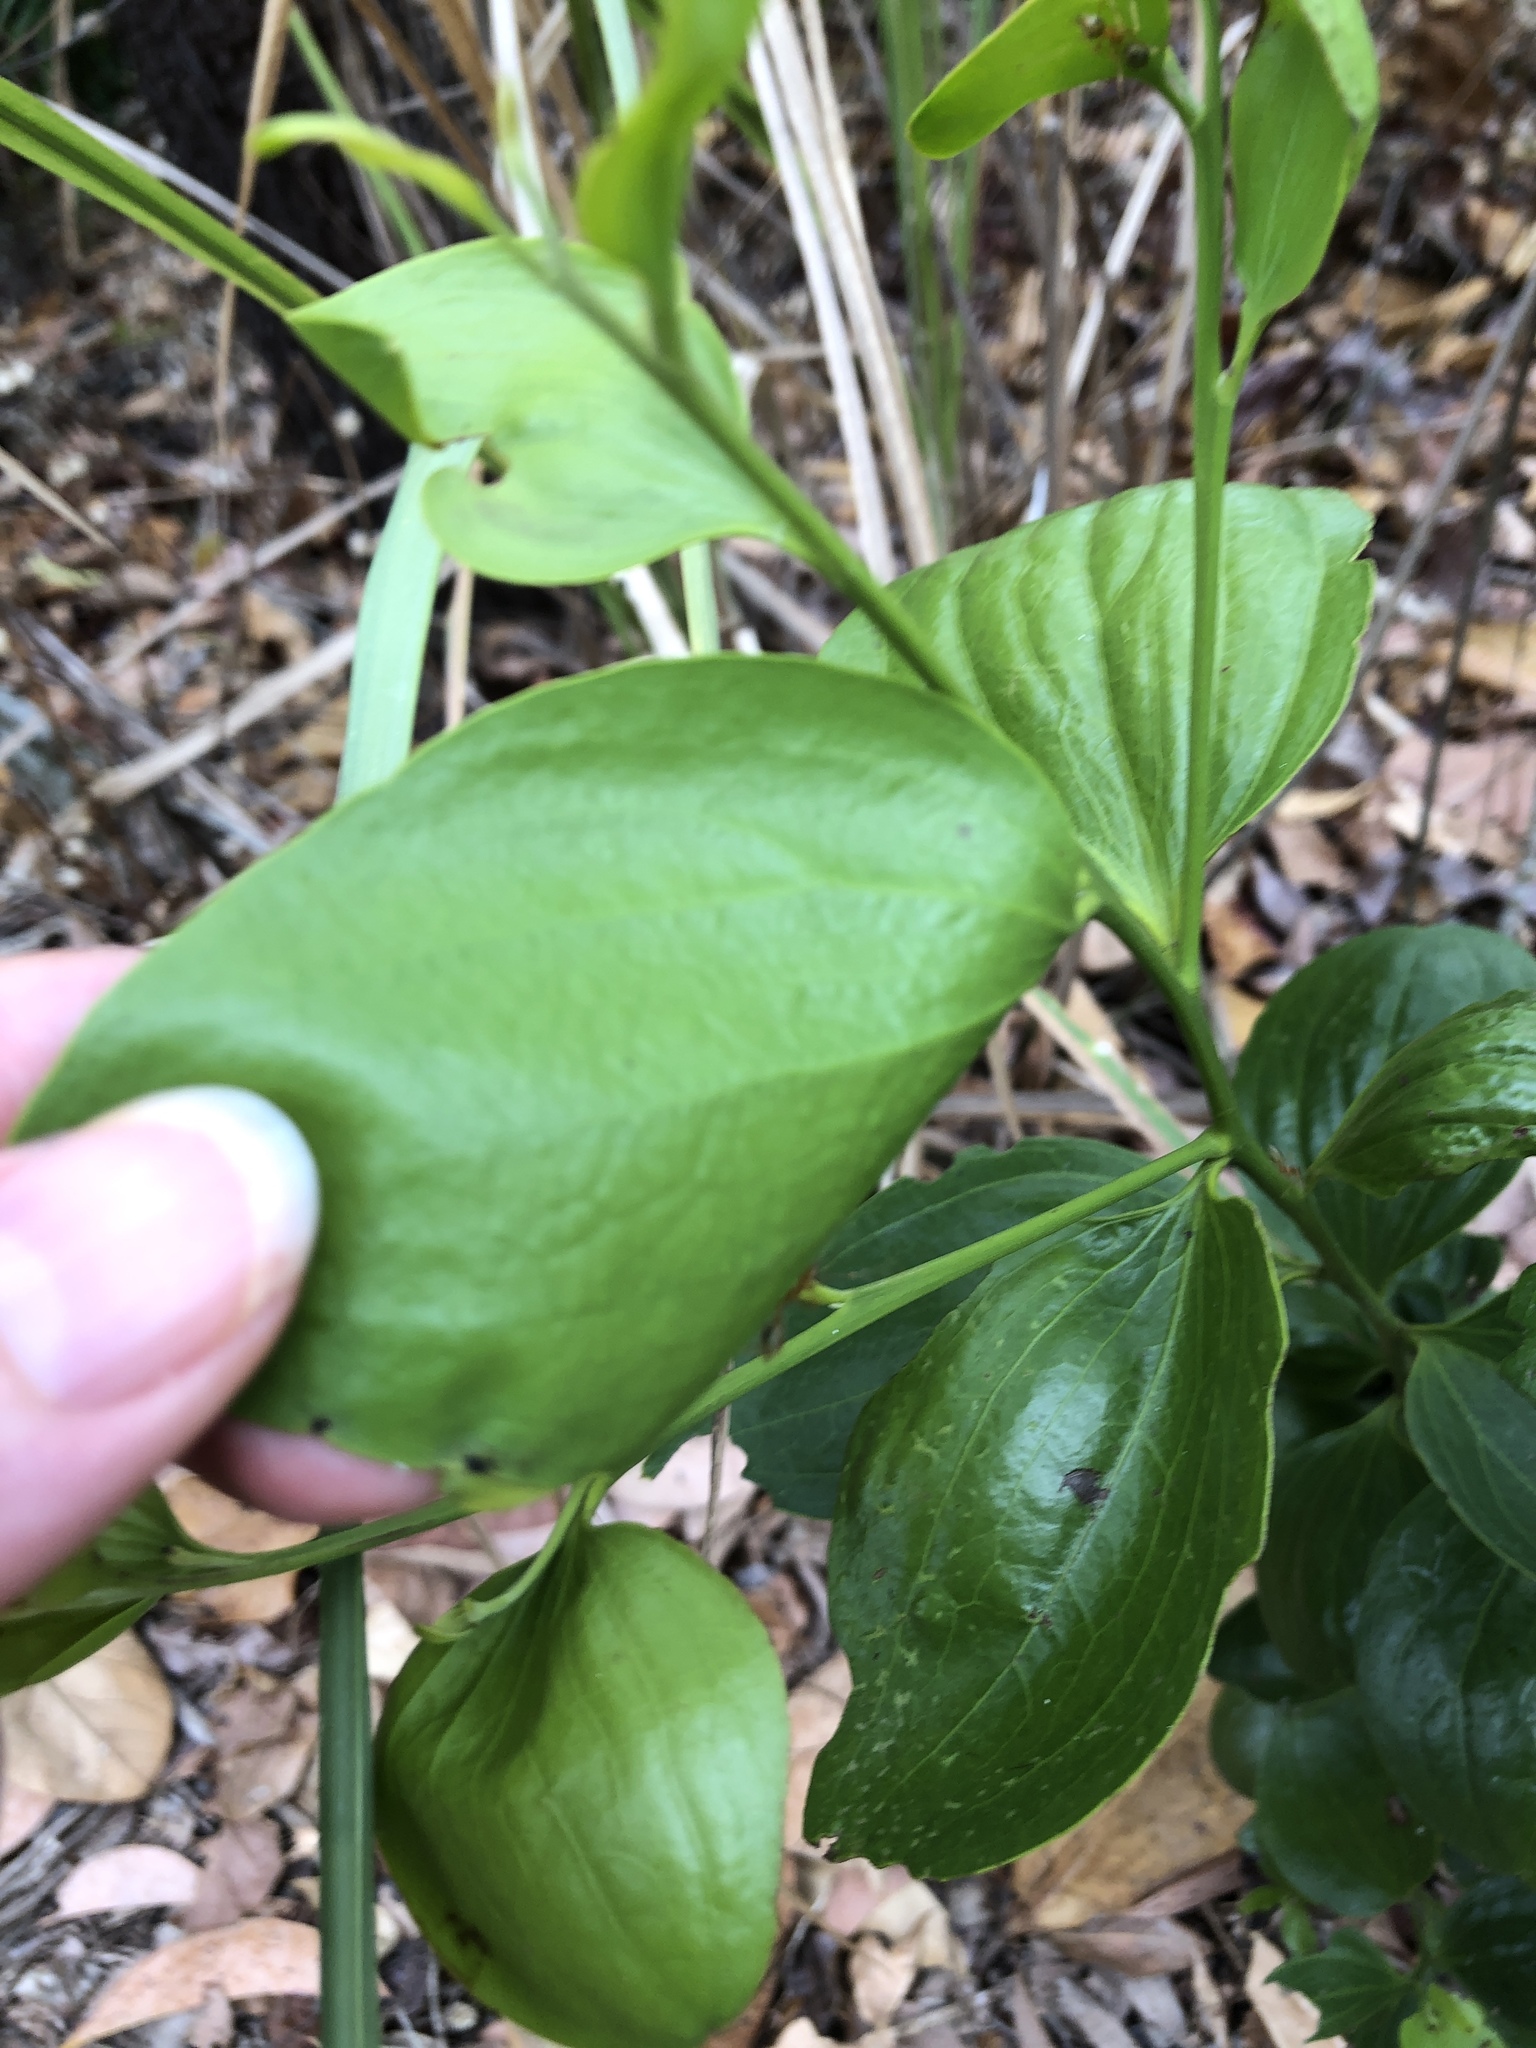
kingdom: Plantae
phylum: Tracheophyta
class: Magnoliopsida
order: Santalales
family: Santalaceae
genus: Exocarpos
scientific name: Exocarpos latifolius
